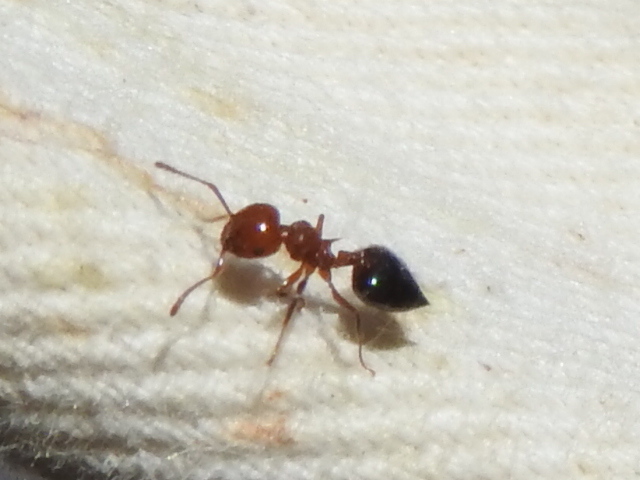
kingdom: Animalia
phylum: Arthropoda
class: Insecta
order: Hymenoptera
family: Formicidae
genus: Crematogaster
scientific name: Crematogaster laeviuscula
